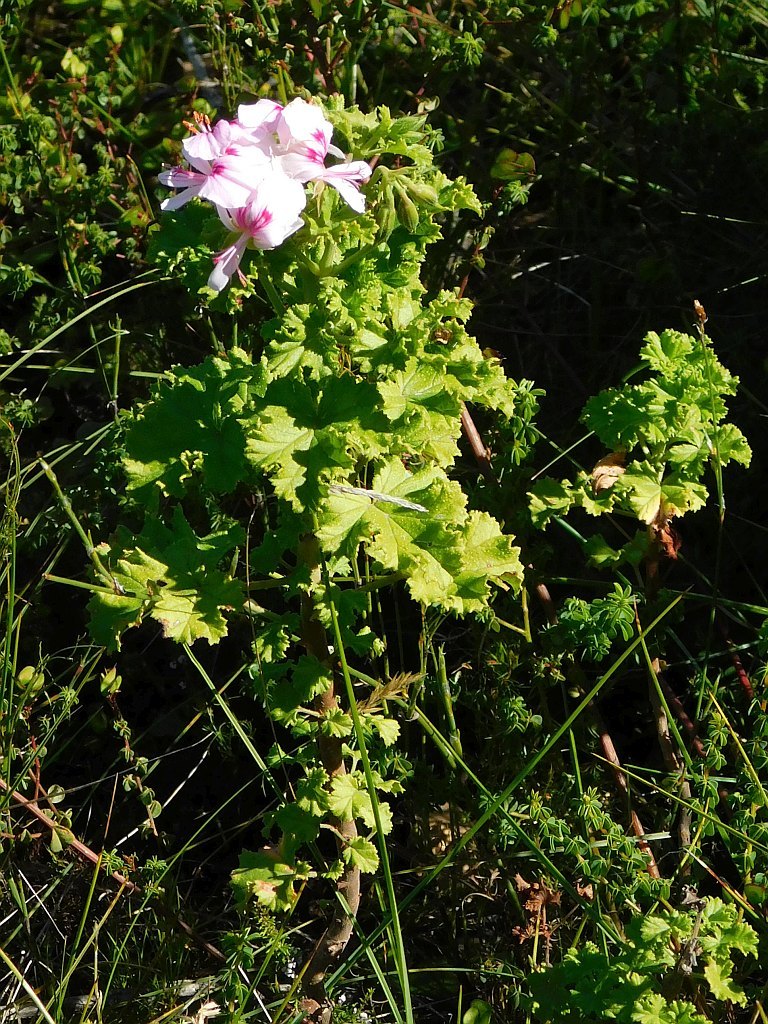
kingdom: Plantae
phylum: Tracheophyta
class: Magnoliopsida
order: Geraniales
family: Geraniaceae
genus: Pelargonium
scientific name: Pelargonium greytonense
